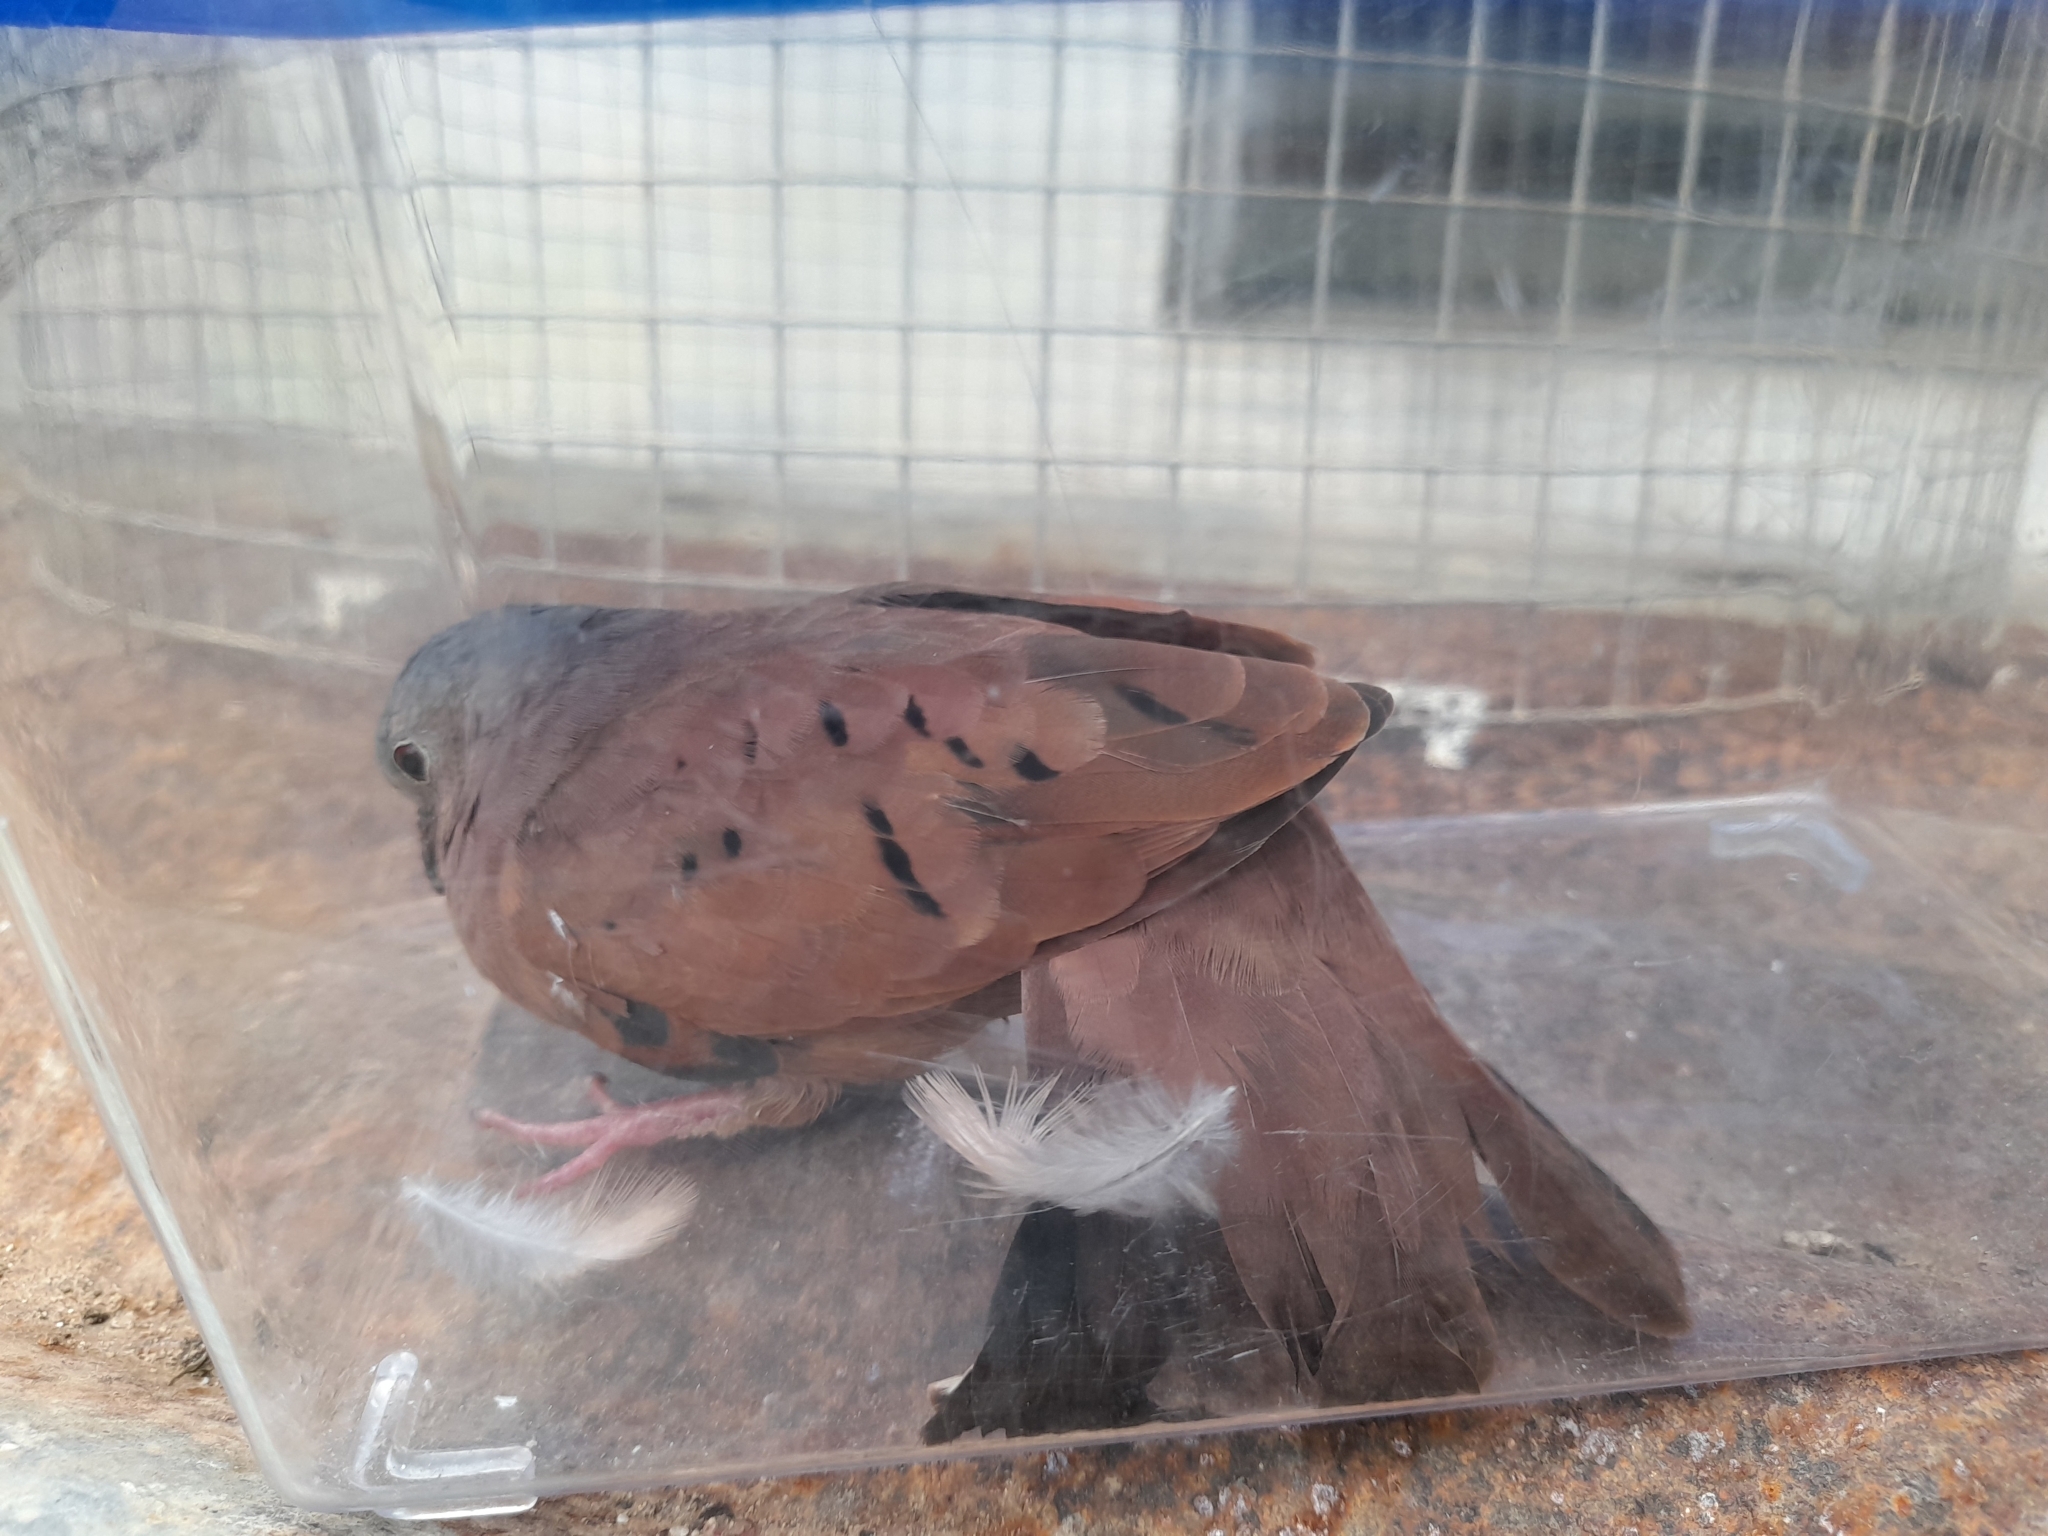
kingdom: Animalia
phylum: Chordata
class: Aves
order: Columbiformes
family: Columbidae
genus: Columbina
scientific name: Columbina talpacoti
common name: Ruddy ground dove
